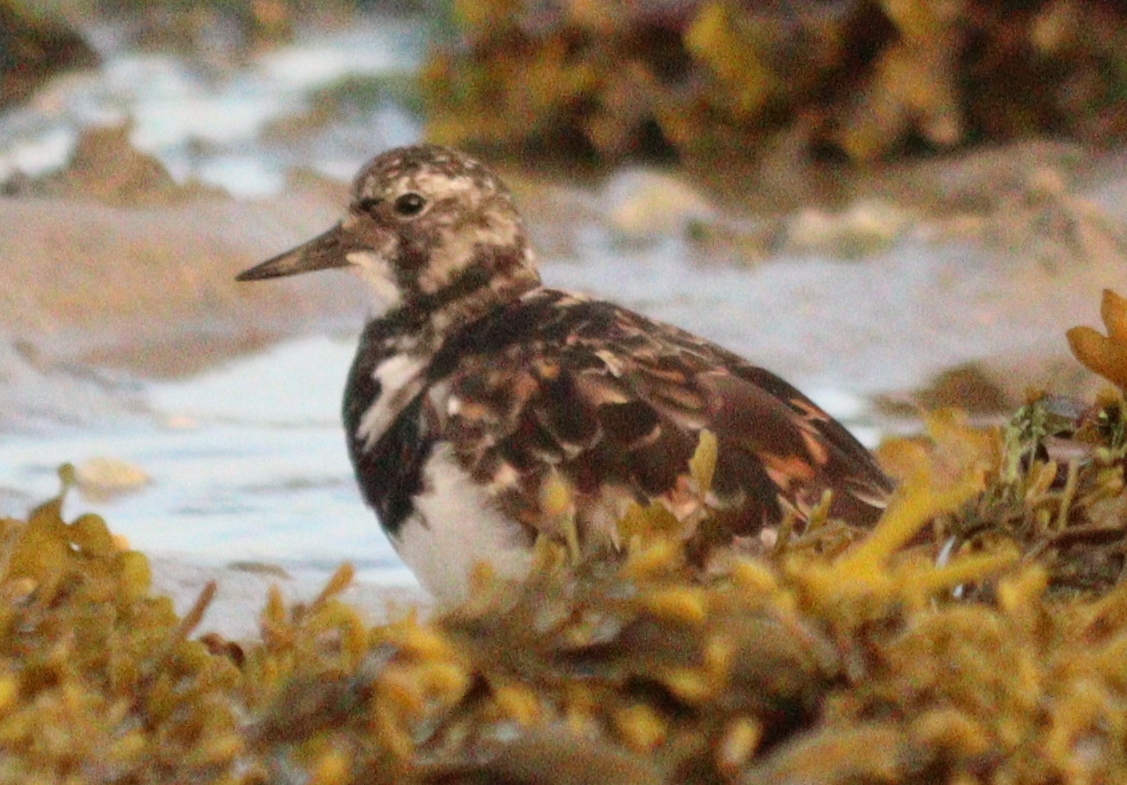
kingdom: Animalia
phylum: Chordata
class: Aves
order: Charadriiformes
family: Scolopacidae
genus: Arenaria
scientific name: Arenaria interpres
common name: Ruddy turnstone
